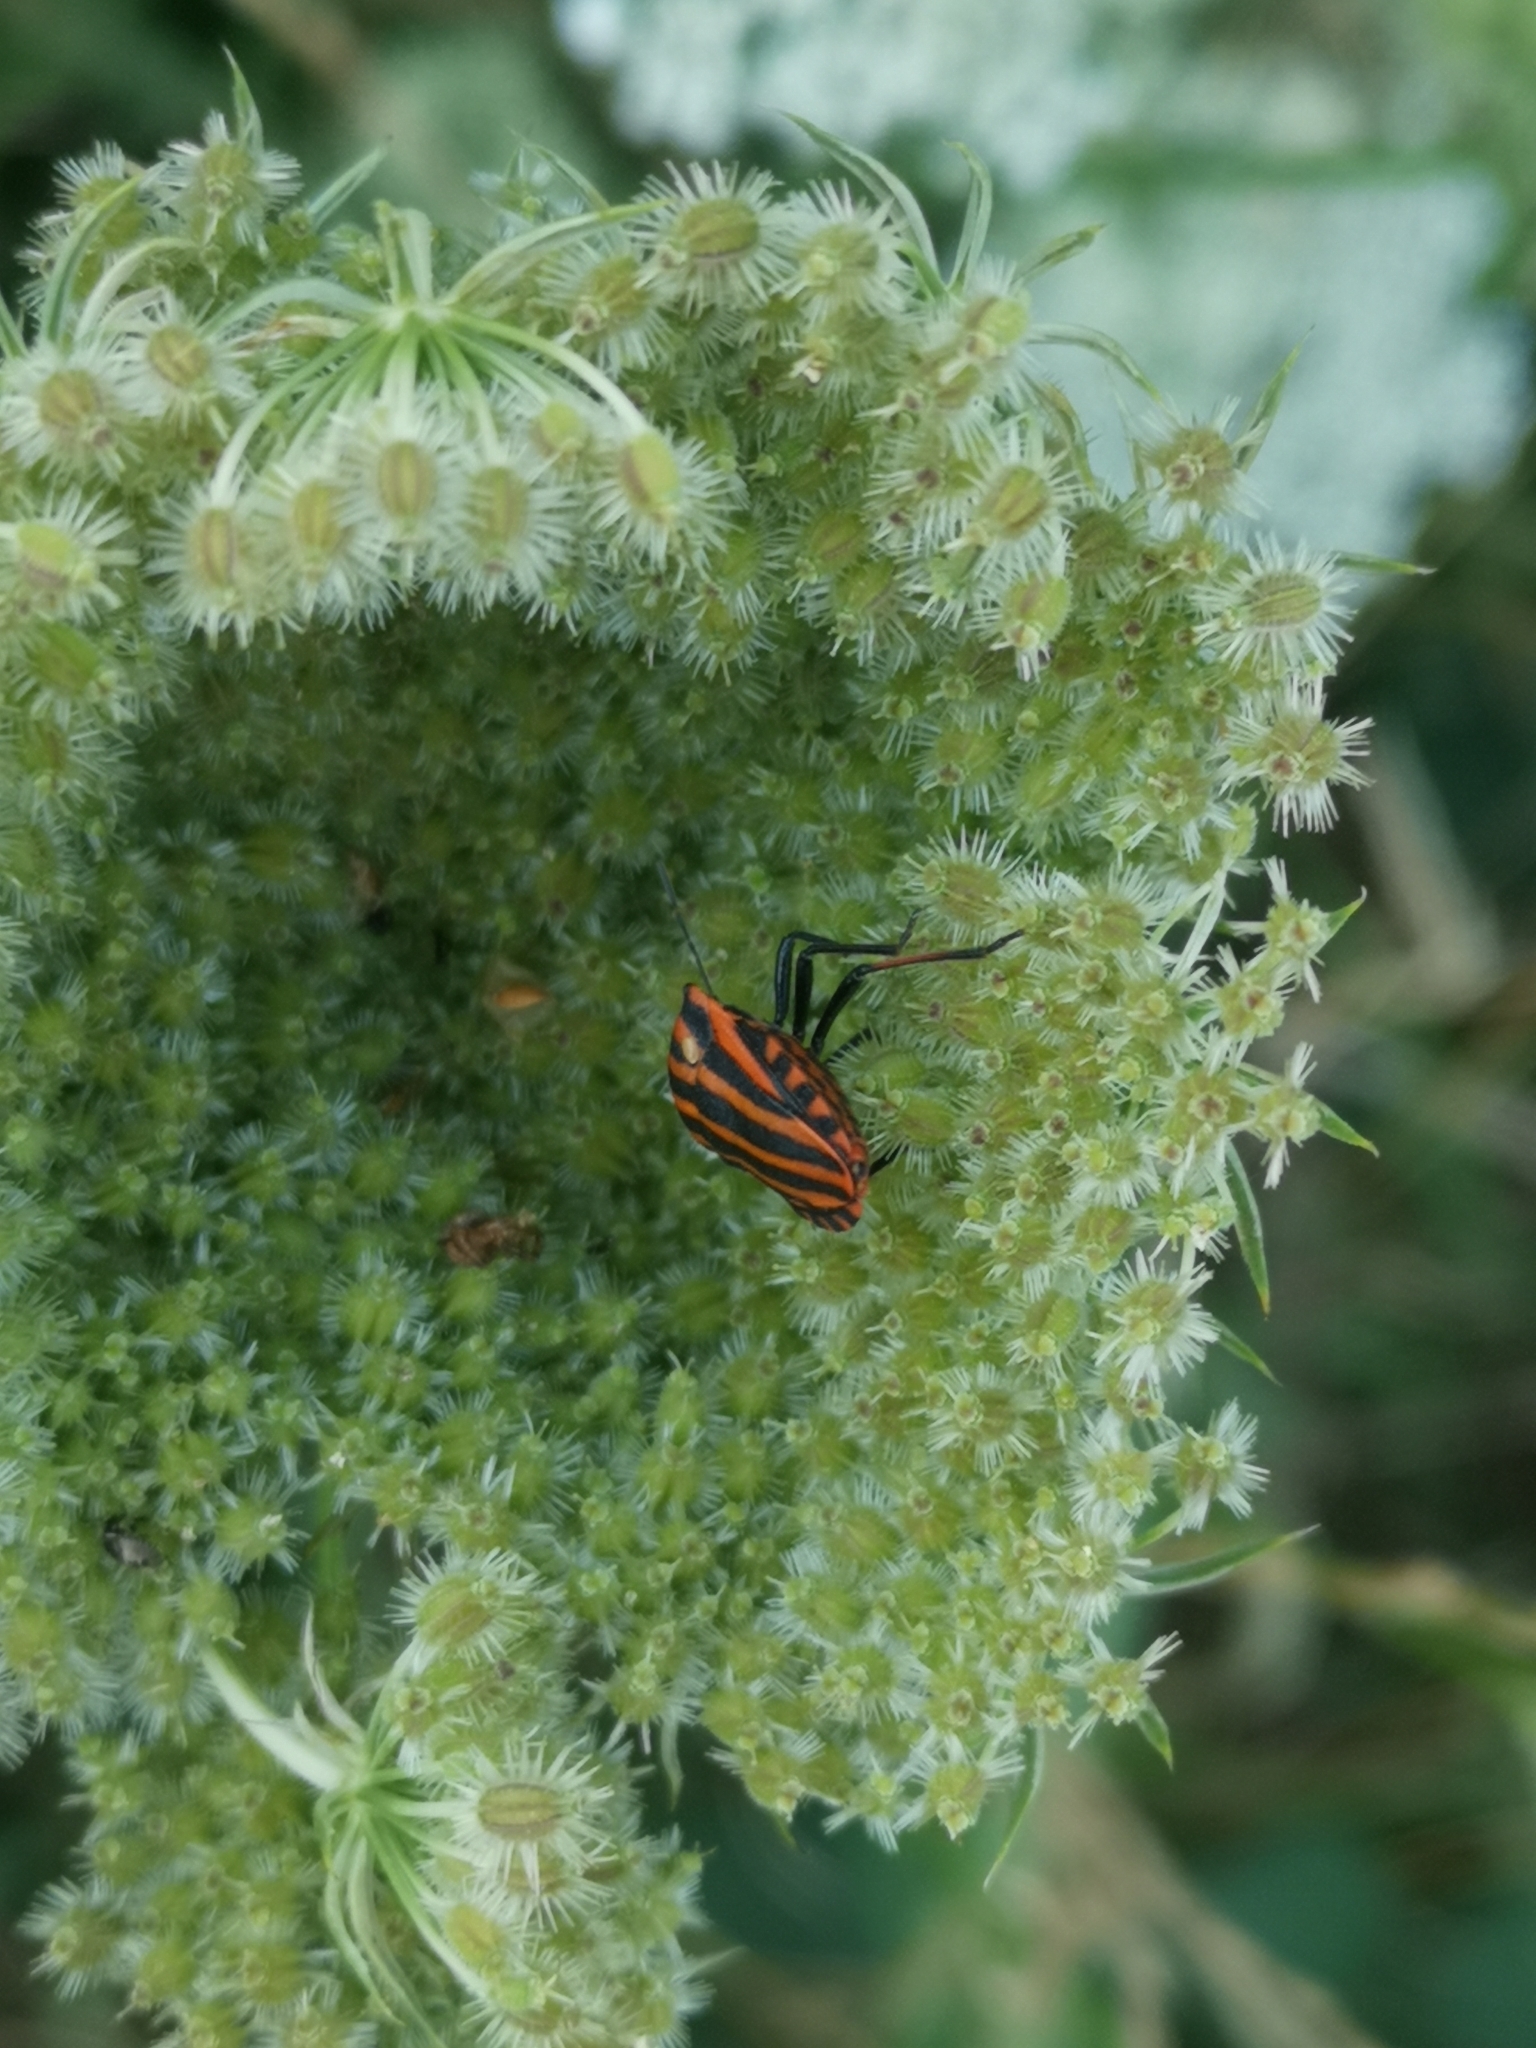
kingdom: Animalia
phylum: Arthropoda
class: Insecta
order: Hemiptera
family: Pentatomidae
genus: Graphosoma
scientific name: Graphosoma italicum
